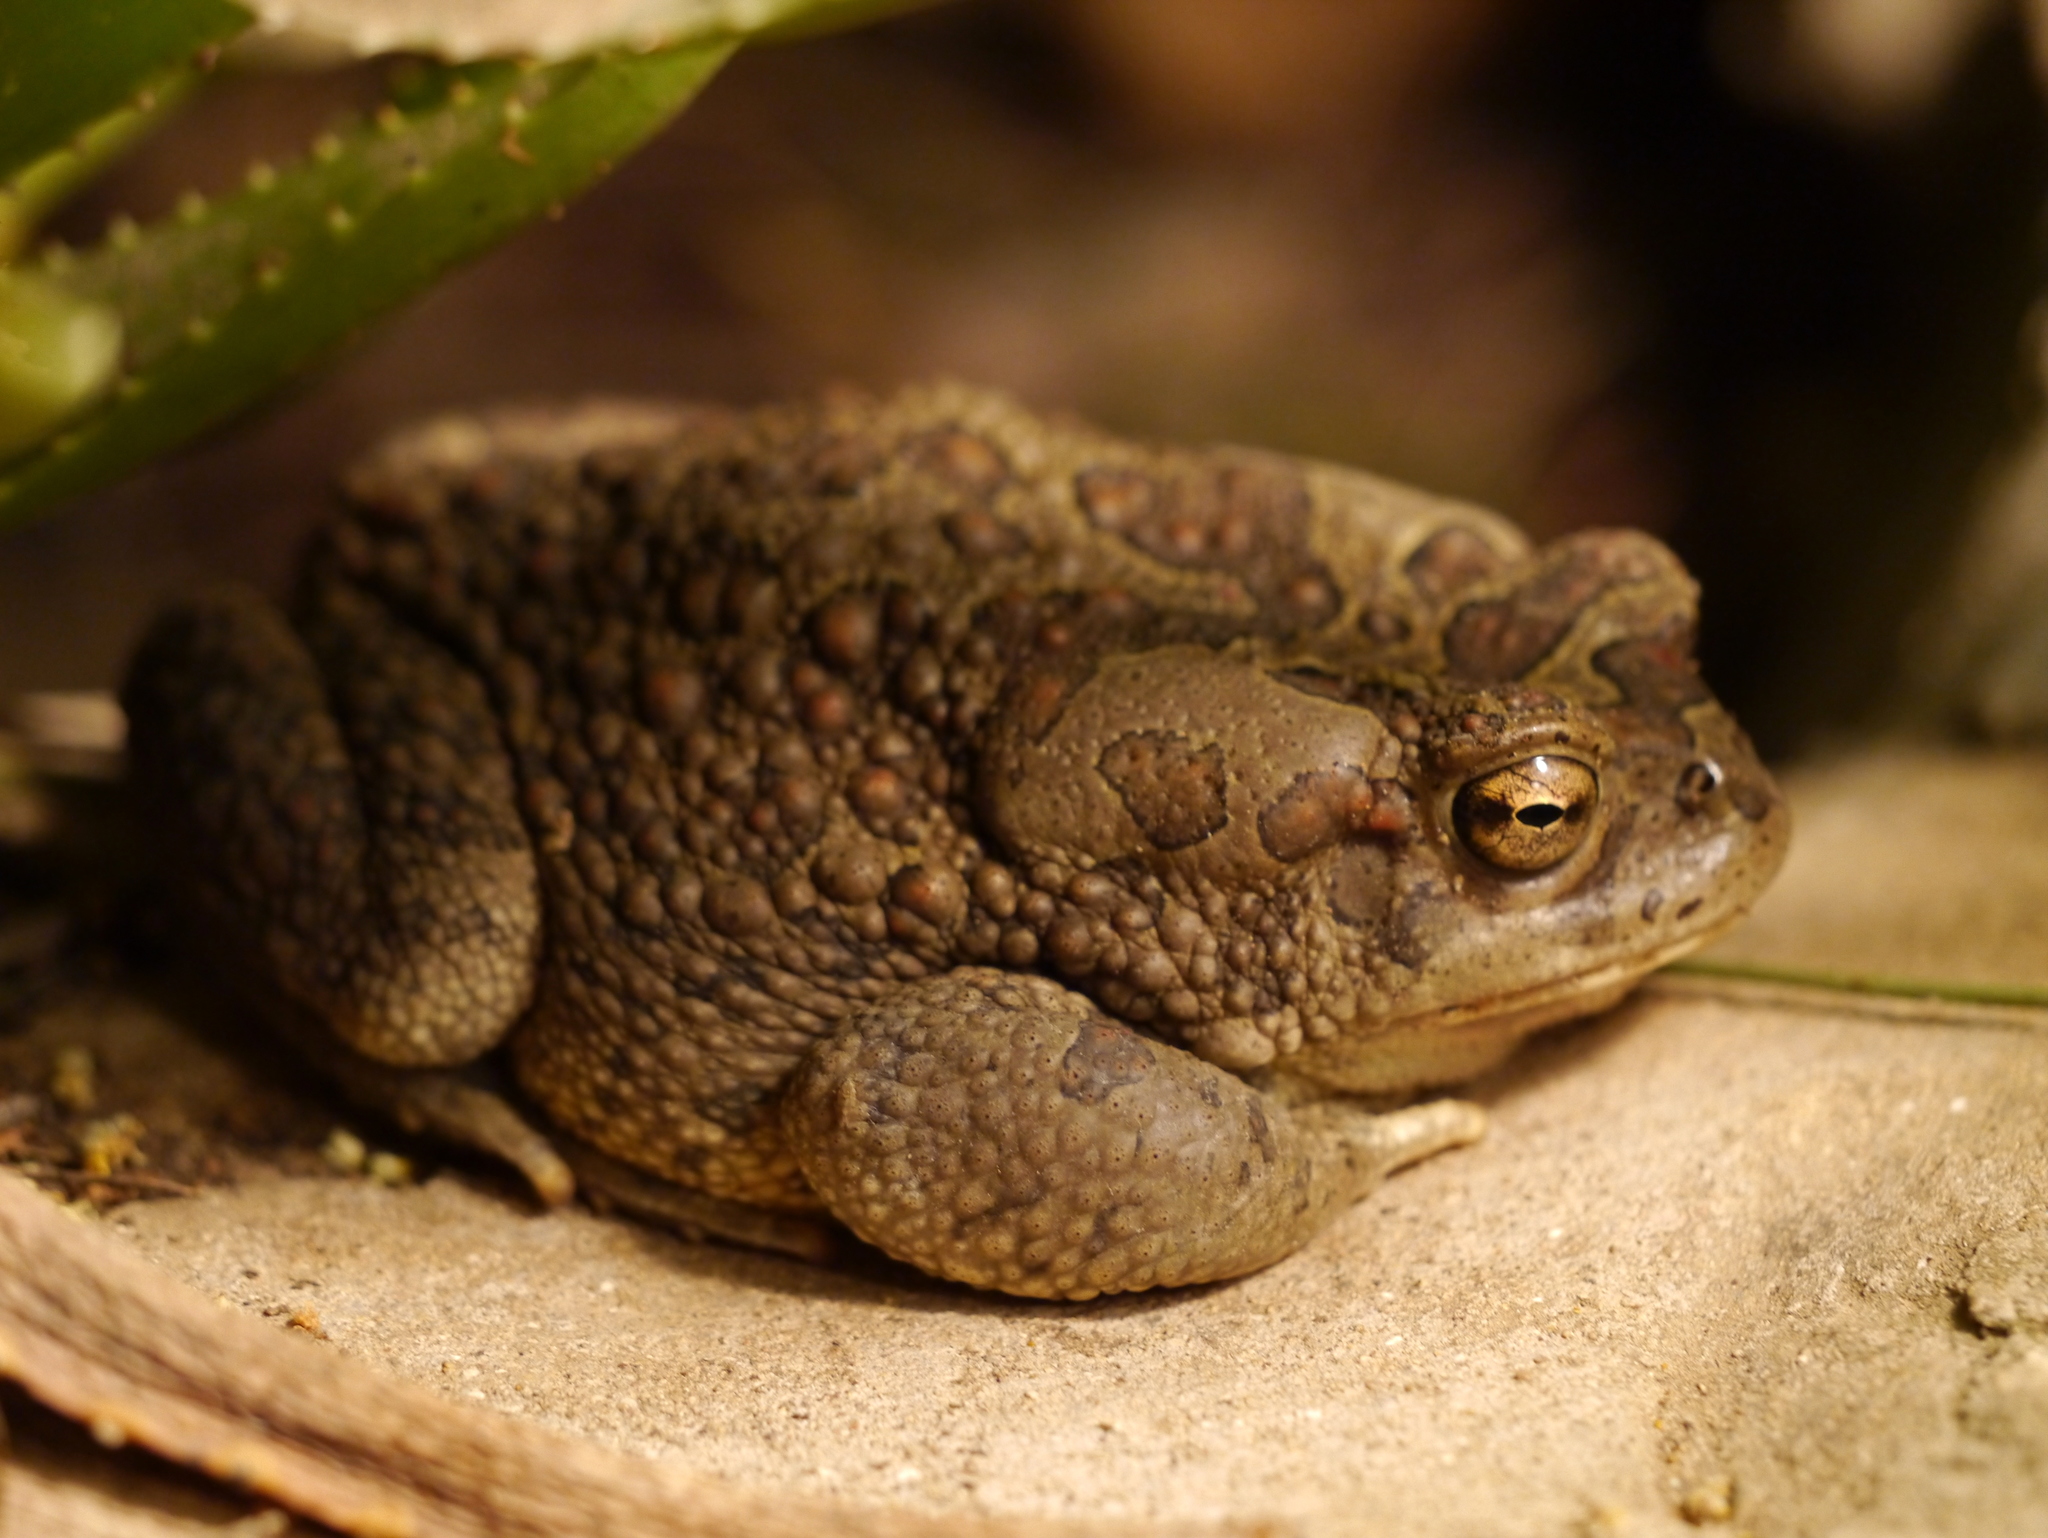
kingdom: Animalia
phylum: Chordata
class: Amphibia
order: Anura
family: Bufonidae
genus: Sclerophrys
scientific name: Sclerophrys mauritanica
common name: Berber toad
